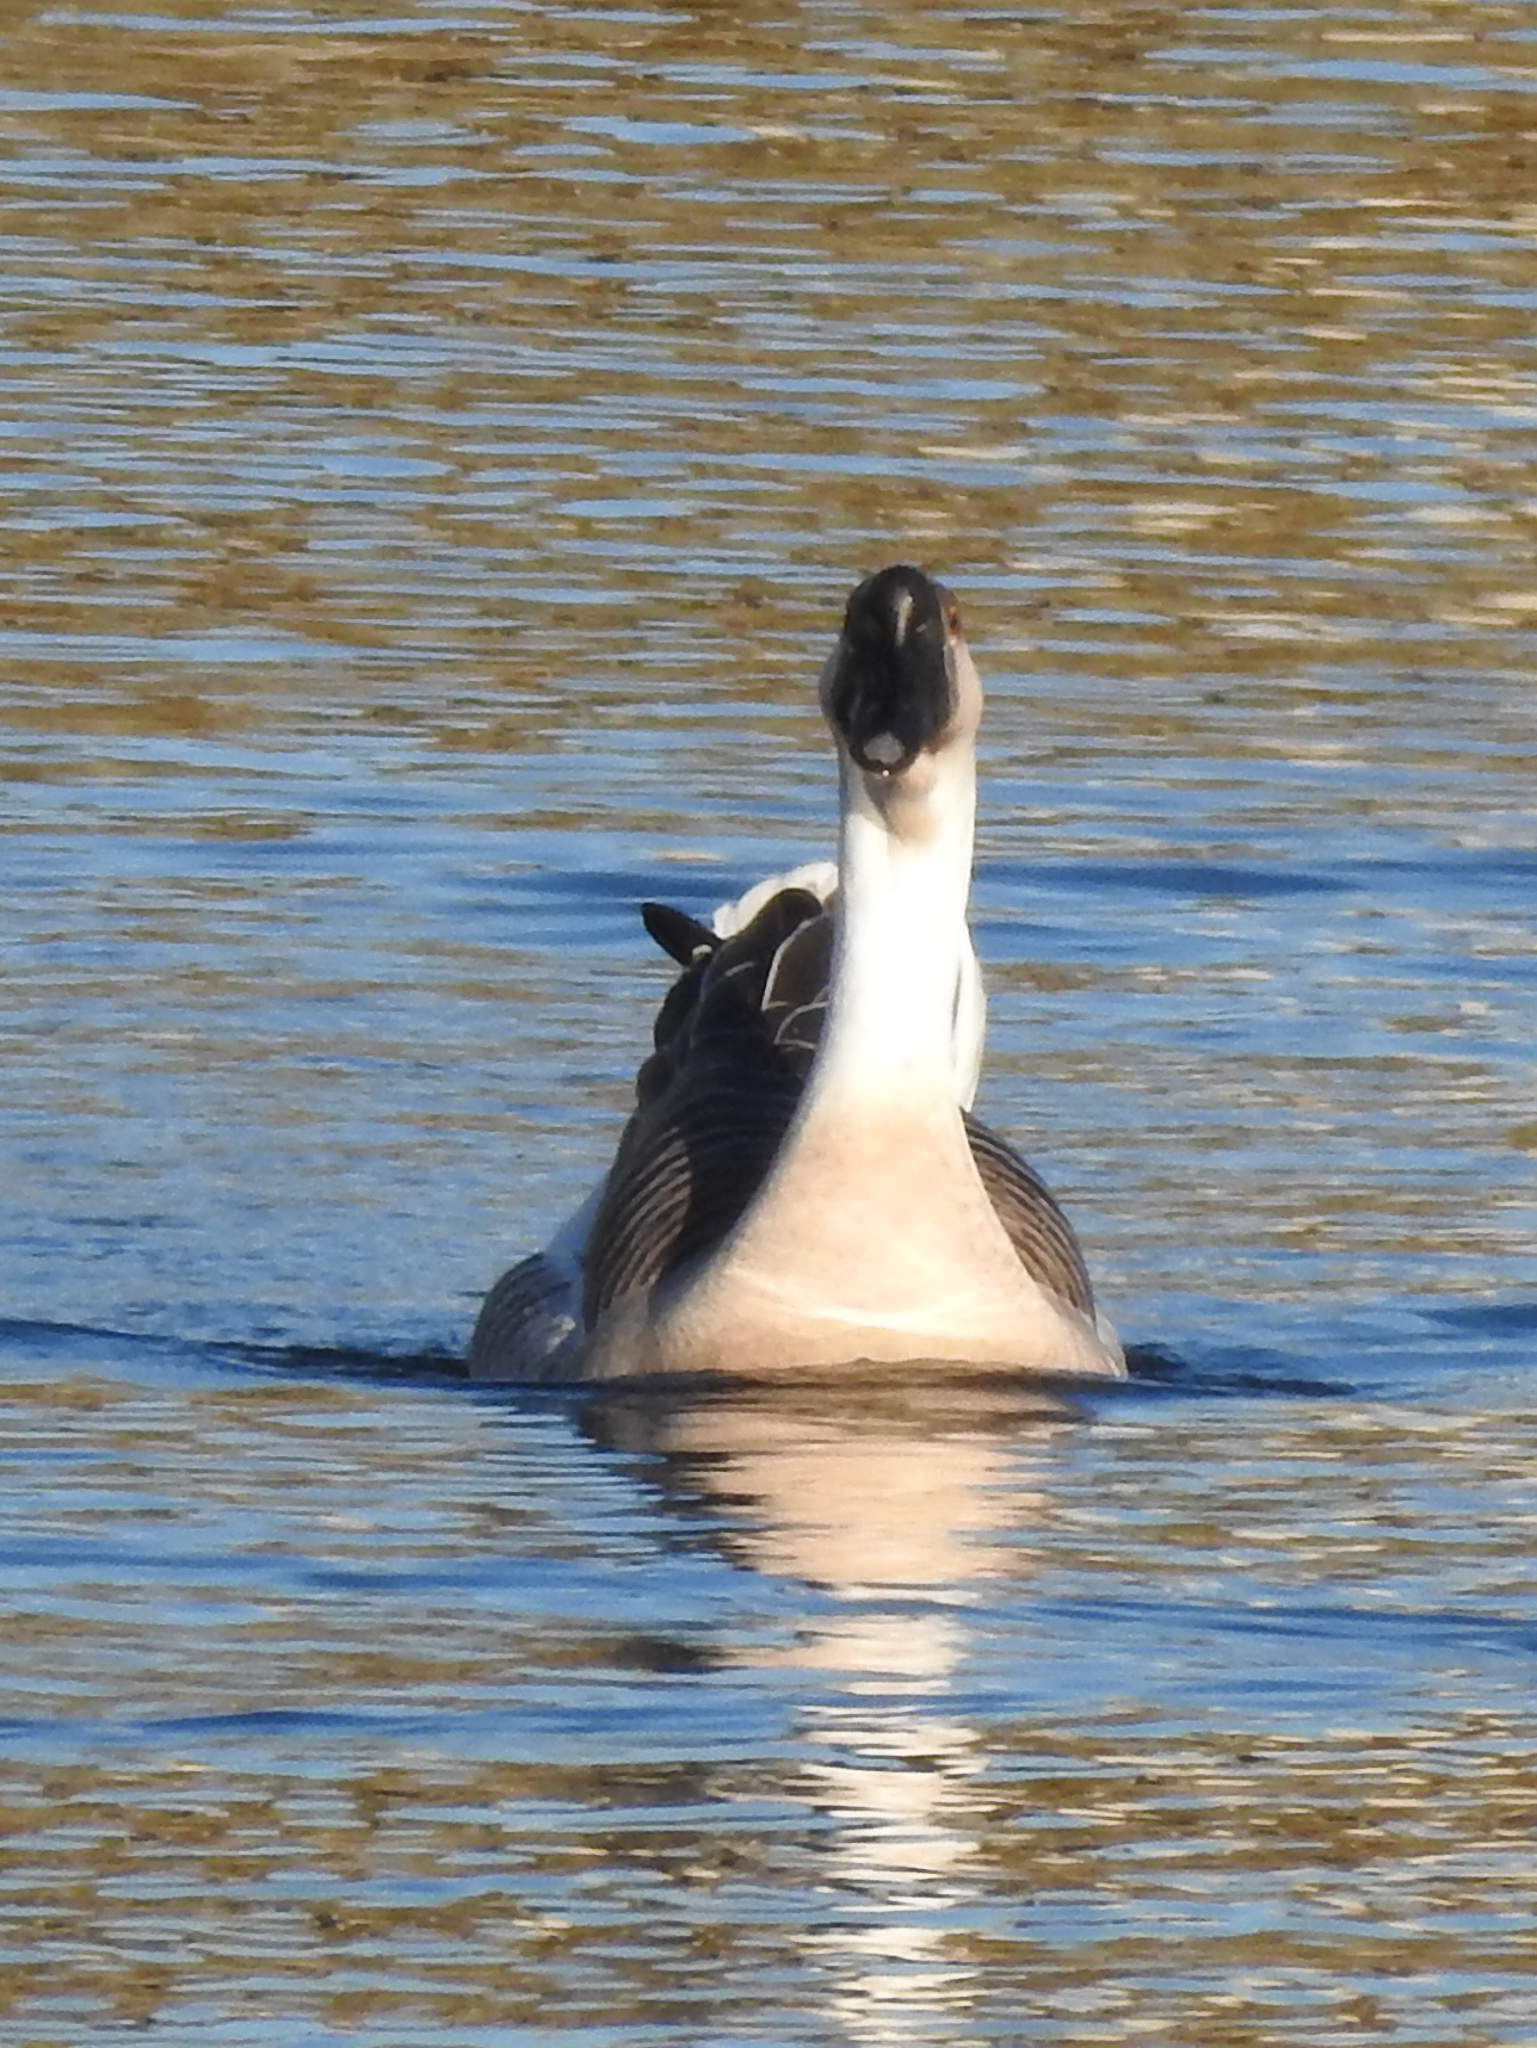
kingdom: Animalia
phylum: Chordata
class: Aves
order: Anseriformes
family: Anatidae
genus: Anser
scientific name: Anser cygnoides
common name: Swan goose
